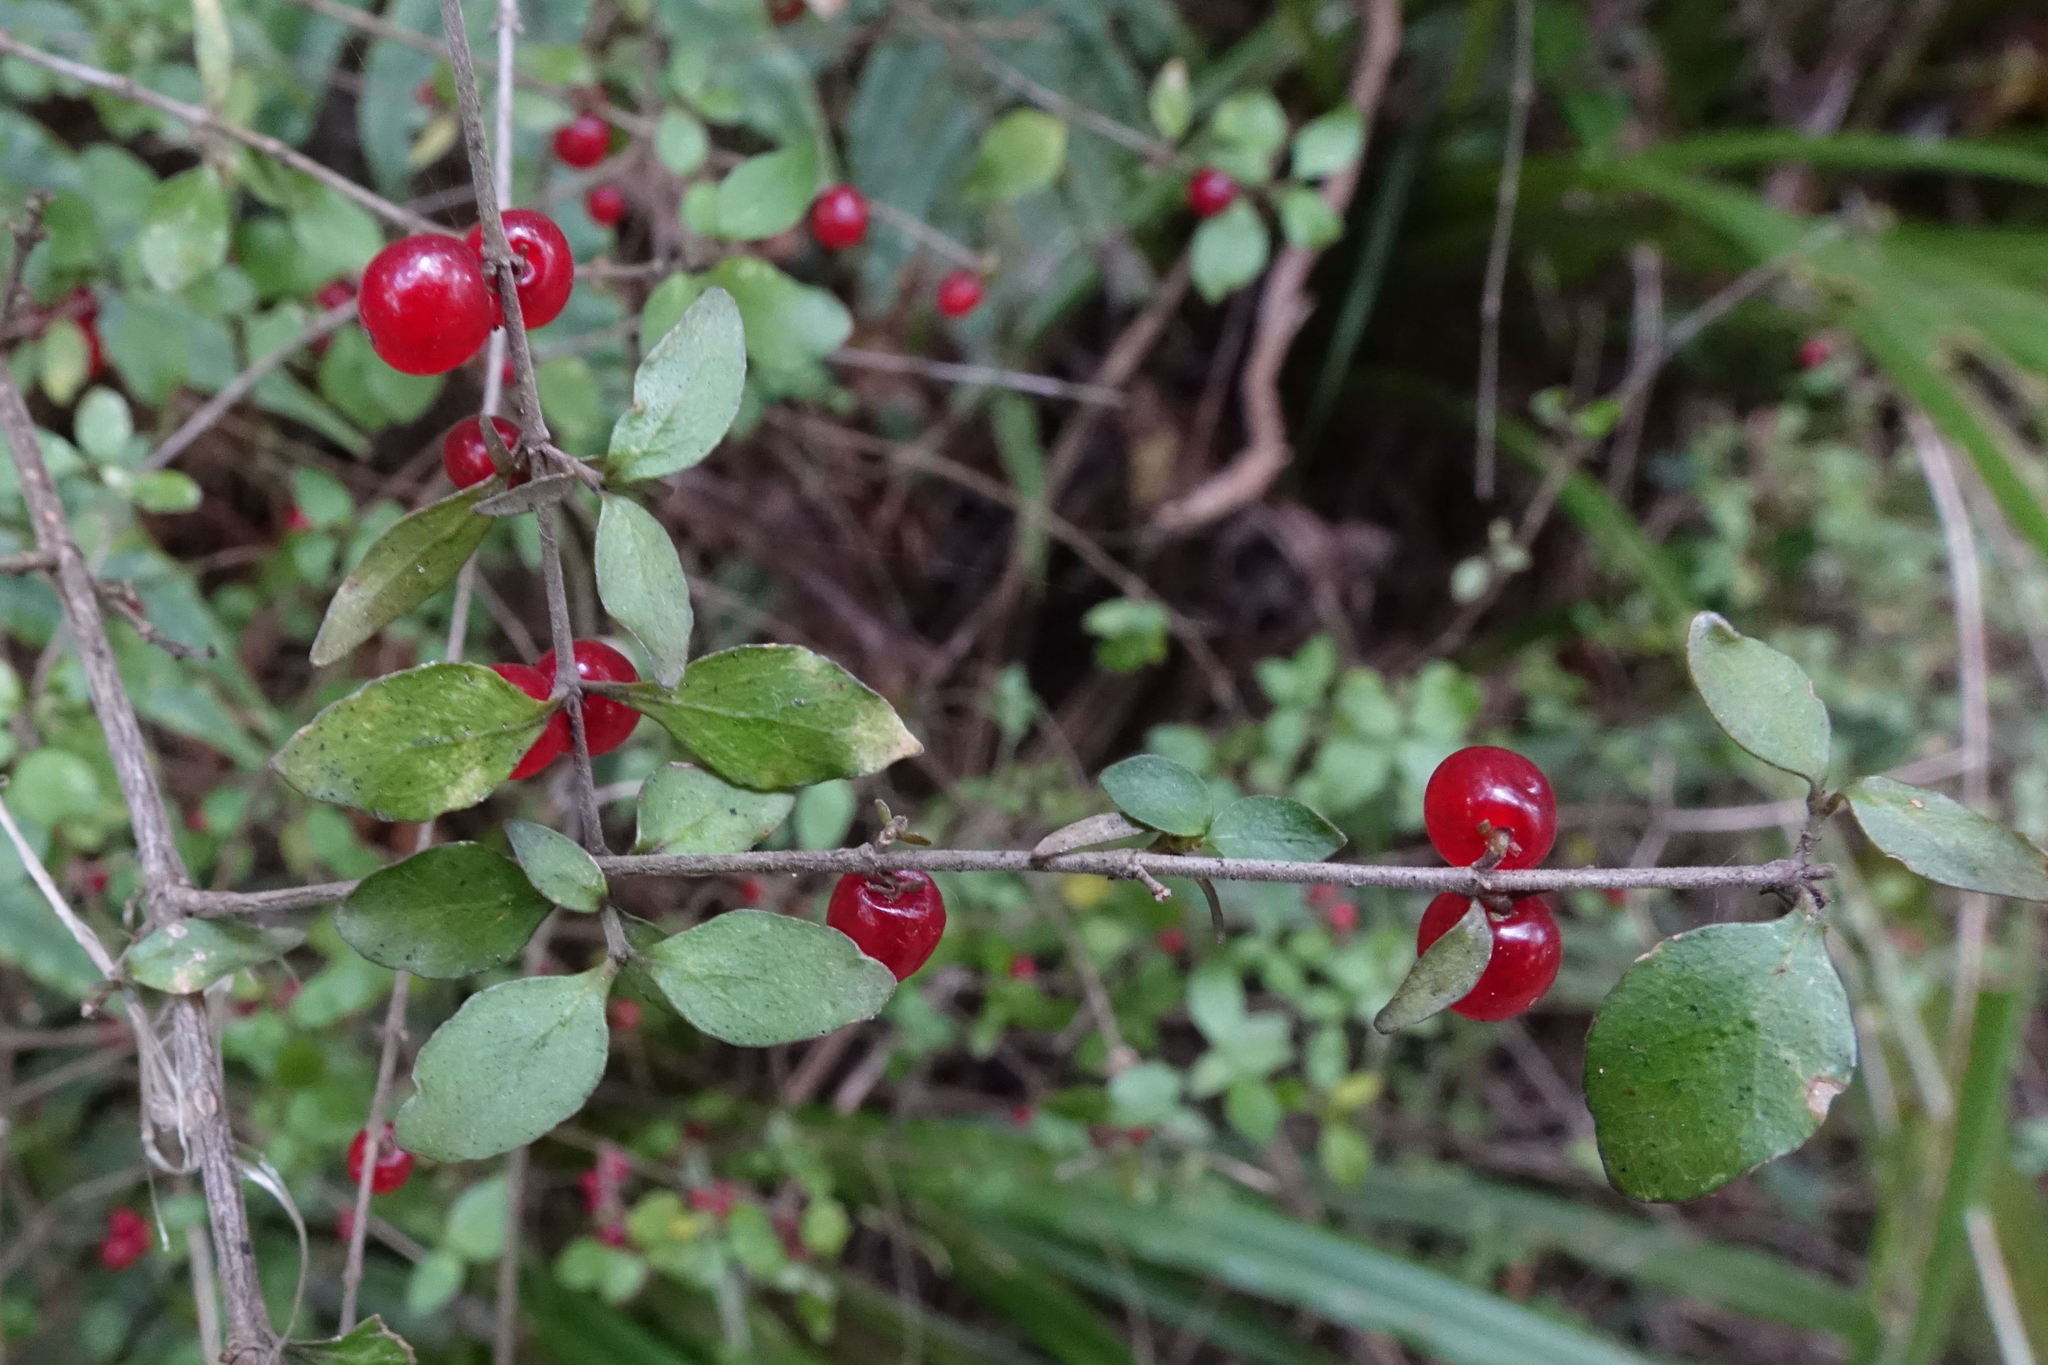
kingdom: Plantae
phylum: Tracheophyta
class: Magnoliopsida
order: Gentianales
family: Rubiaceae
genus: Coprosma
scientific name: Coprosma rhamnoides
